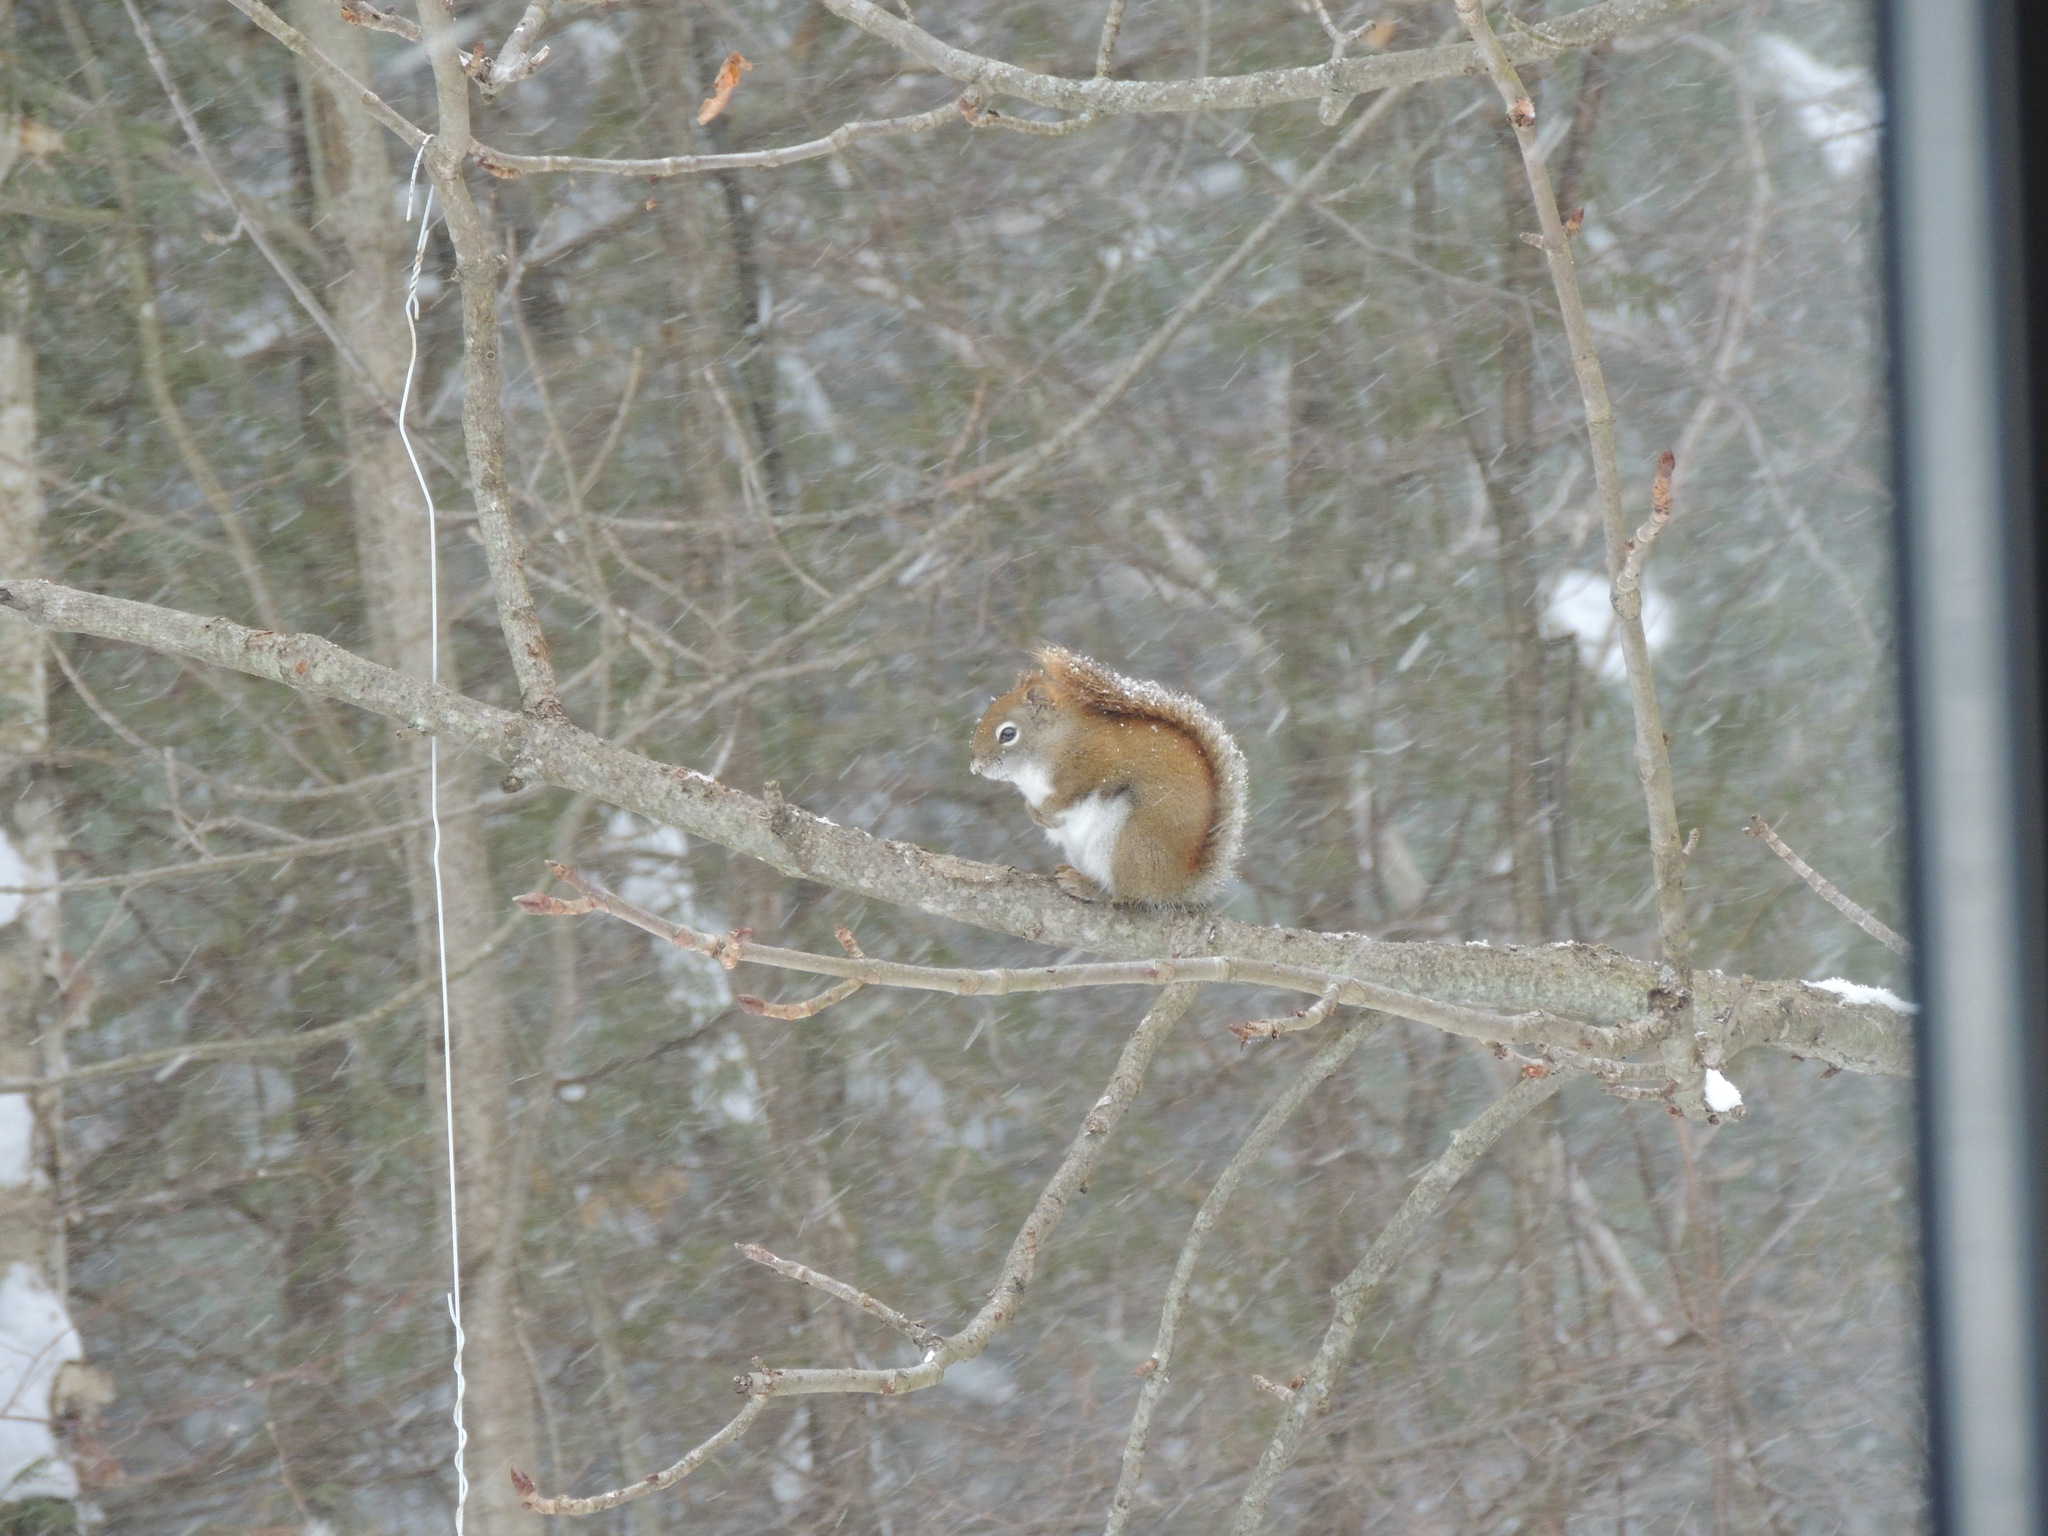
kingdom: Animalia
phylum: Chordata
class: Mammalia
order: Rodentia
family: Sciuridae
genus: Tamiasciurus
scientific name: Tamiasciurus hudsonicus
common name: Red squirrel
